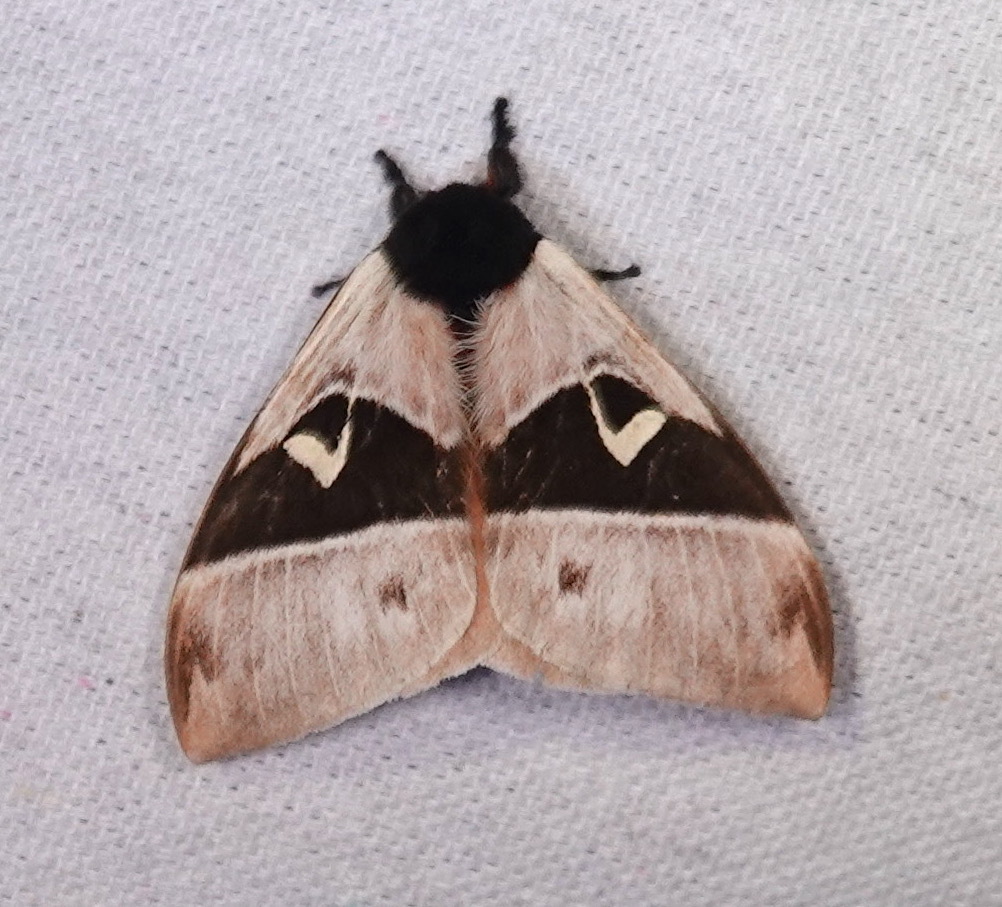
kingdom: Animalia
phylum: Arthropoda
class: Insecta
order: Lepidoptera
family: Saturniidae
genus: Dirphia
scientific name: Dirphia ludmillae
